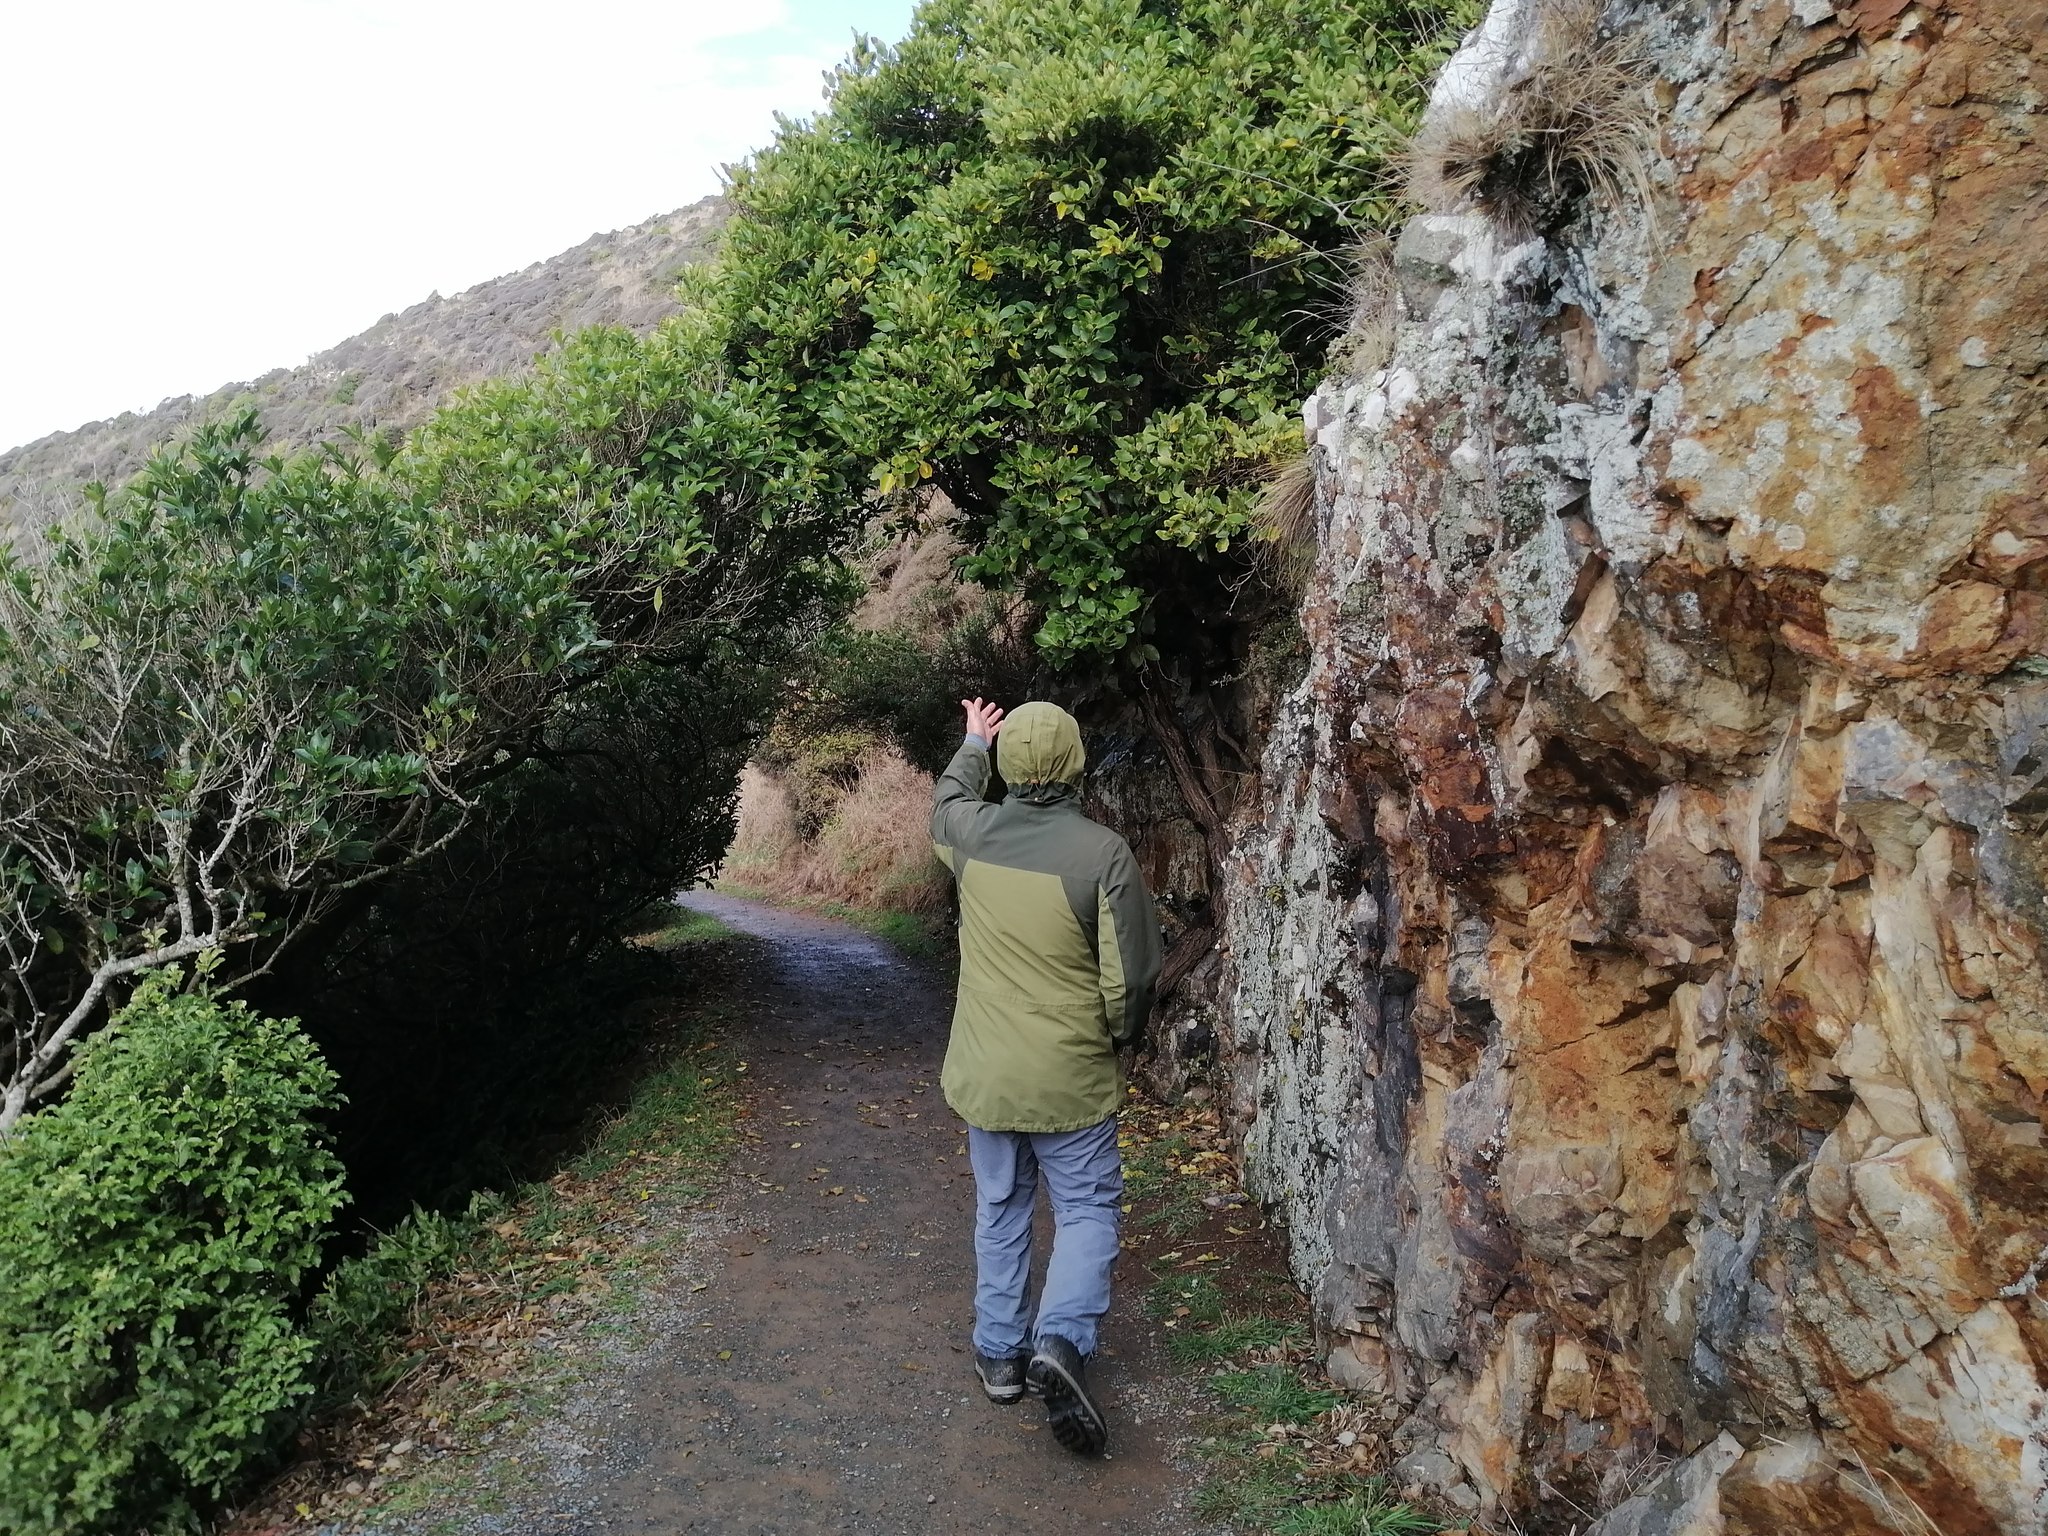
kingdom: Plantae
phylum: Tracheophyta
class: Magnoliopsida
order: Apiales
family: Griseliniaceae
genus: Griselinia
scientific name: Griselinia littoralis
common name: New zealand broadleaf
